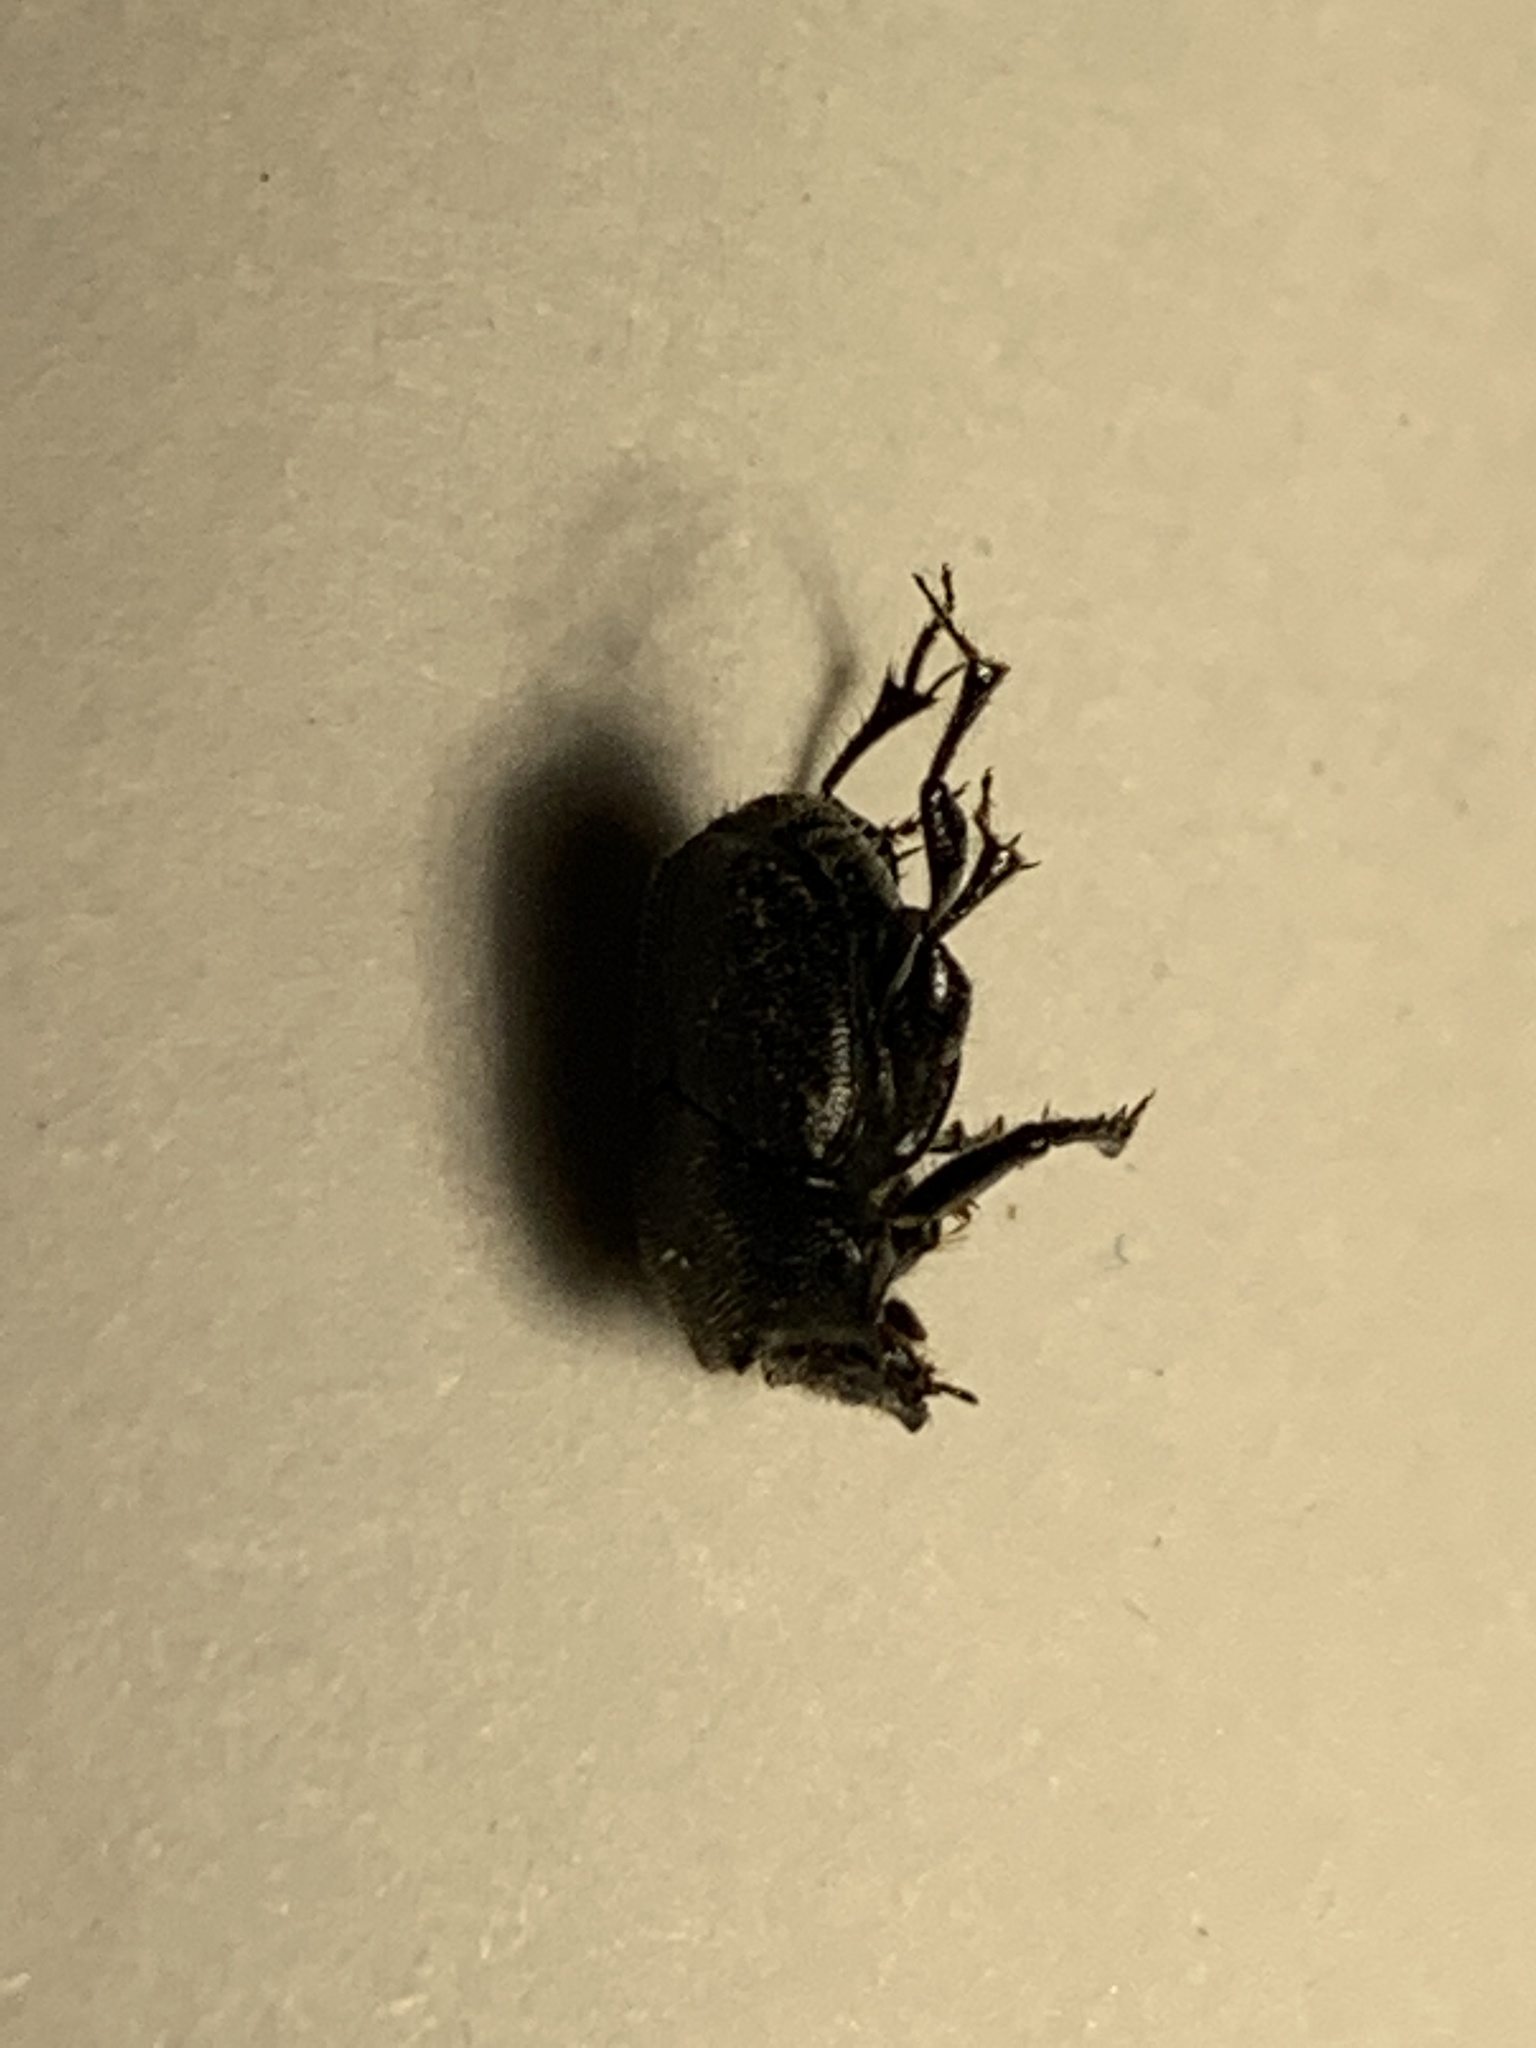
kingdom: Animalia
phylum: Arthropoda
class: Insecta
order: Coleoptera
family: Scarabaeidae
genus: Onthophagus
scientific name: Onthophagus hecate
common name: Scooped scarab
